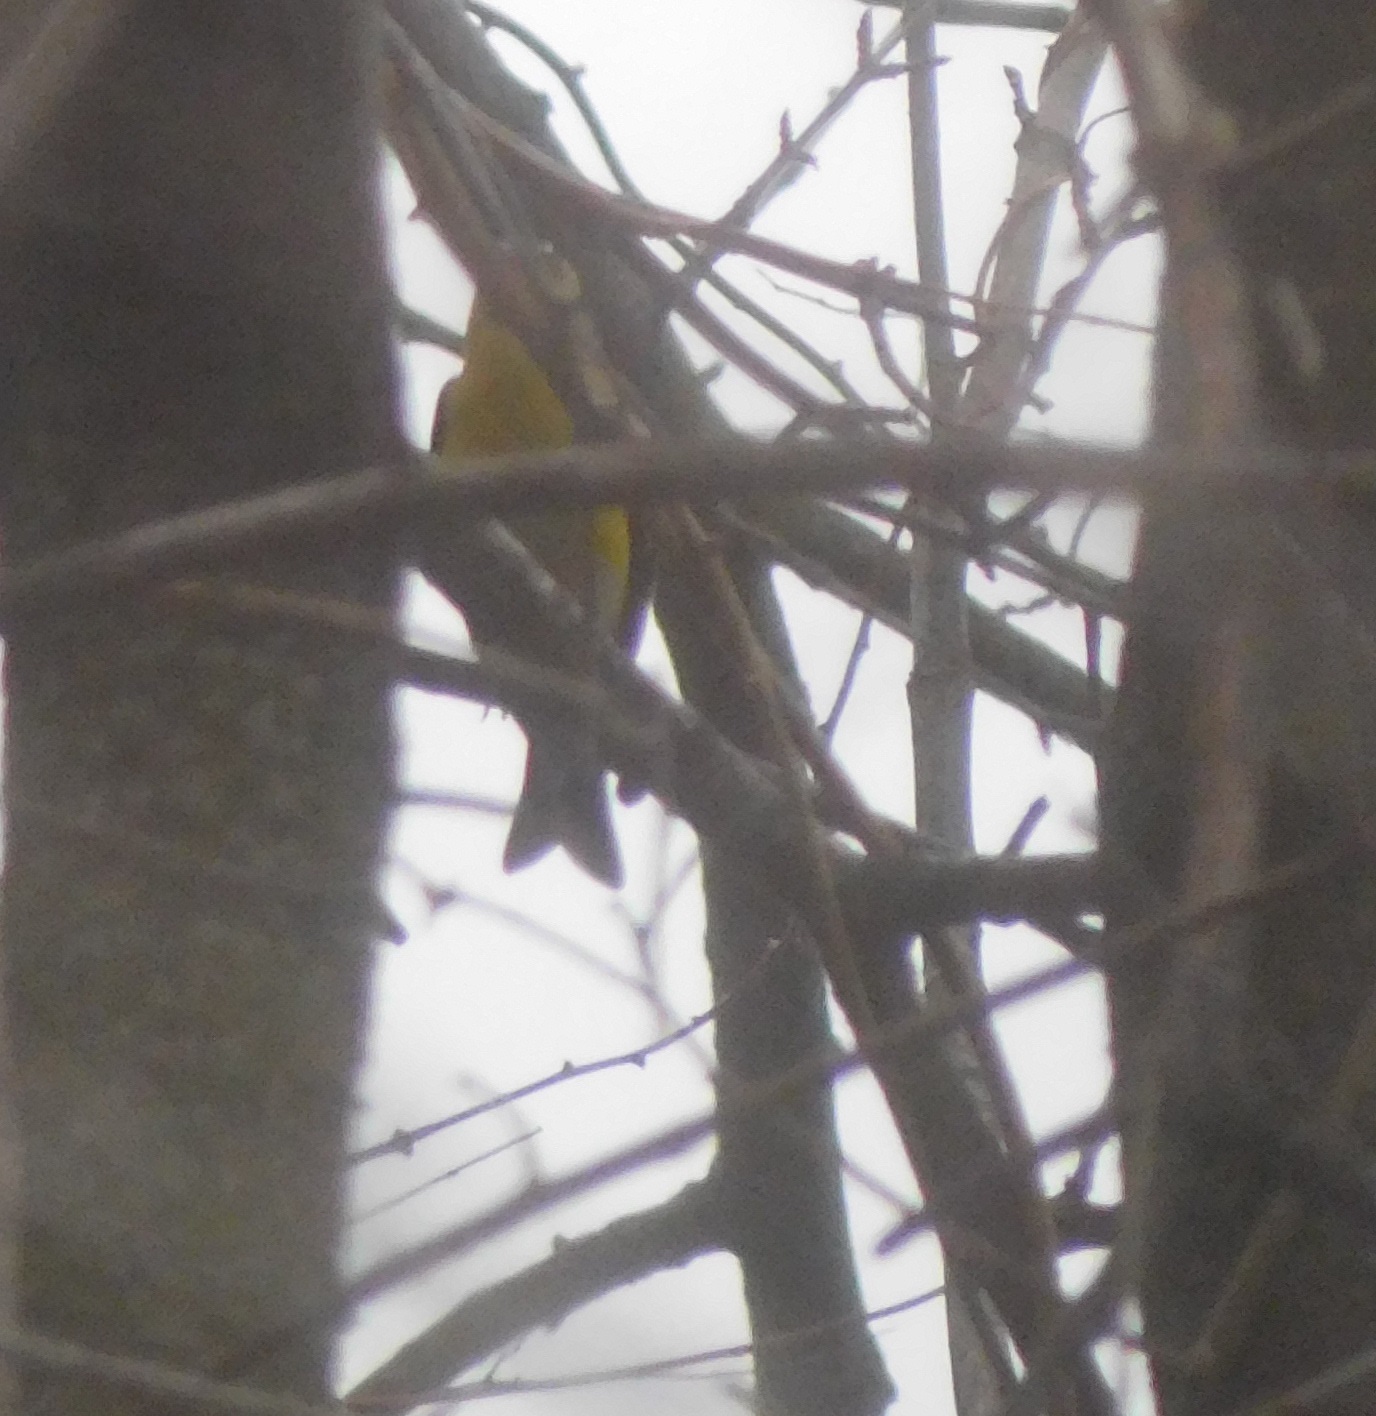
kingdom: Animalia
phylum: Chordata
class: Aves
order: Passeriformes
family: Fringillidae
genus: Spinus
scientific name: Spinus tristis
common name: American goldfinch
